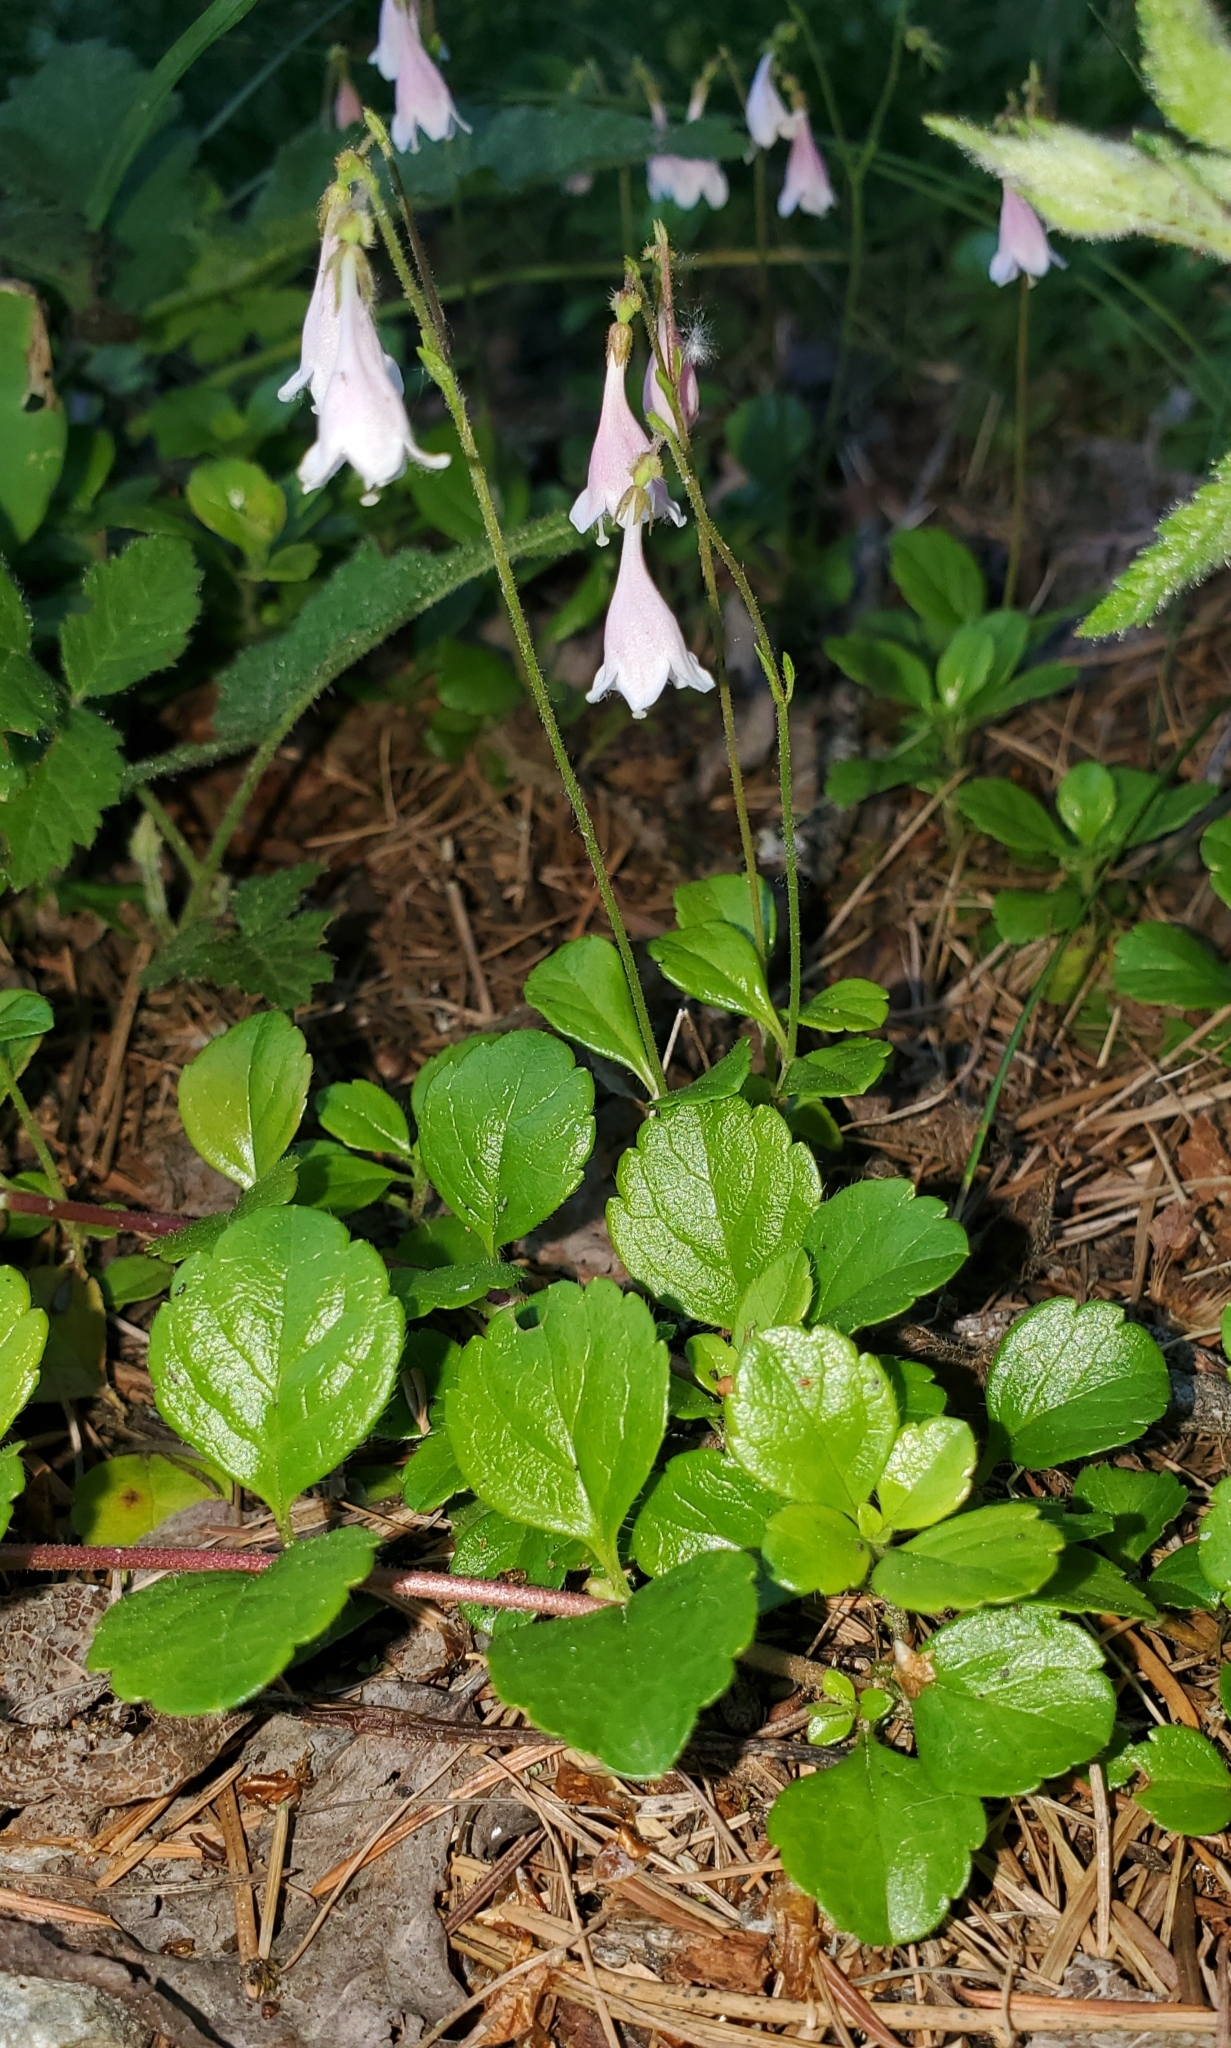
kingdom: Plantae
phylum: Tracheophyta
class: Magnoliopsida
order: Dipsacales
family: Caprifoliaceae
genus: Linnaea
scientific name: Linnaea borealis
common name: Twinflower
